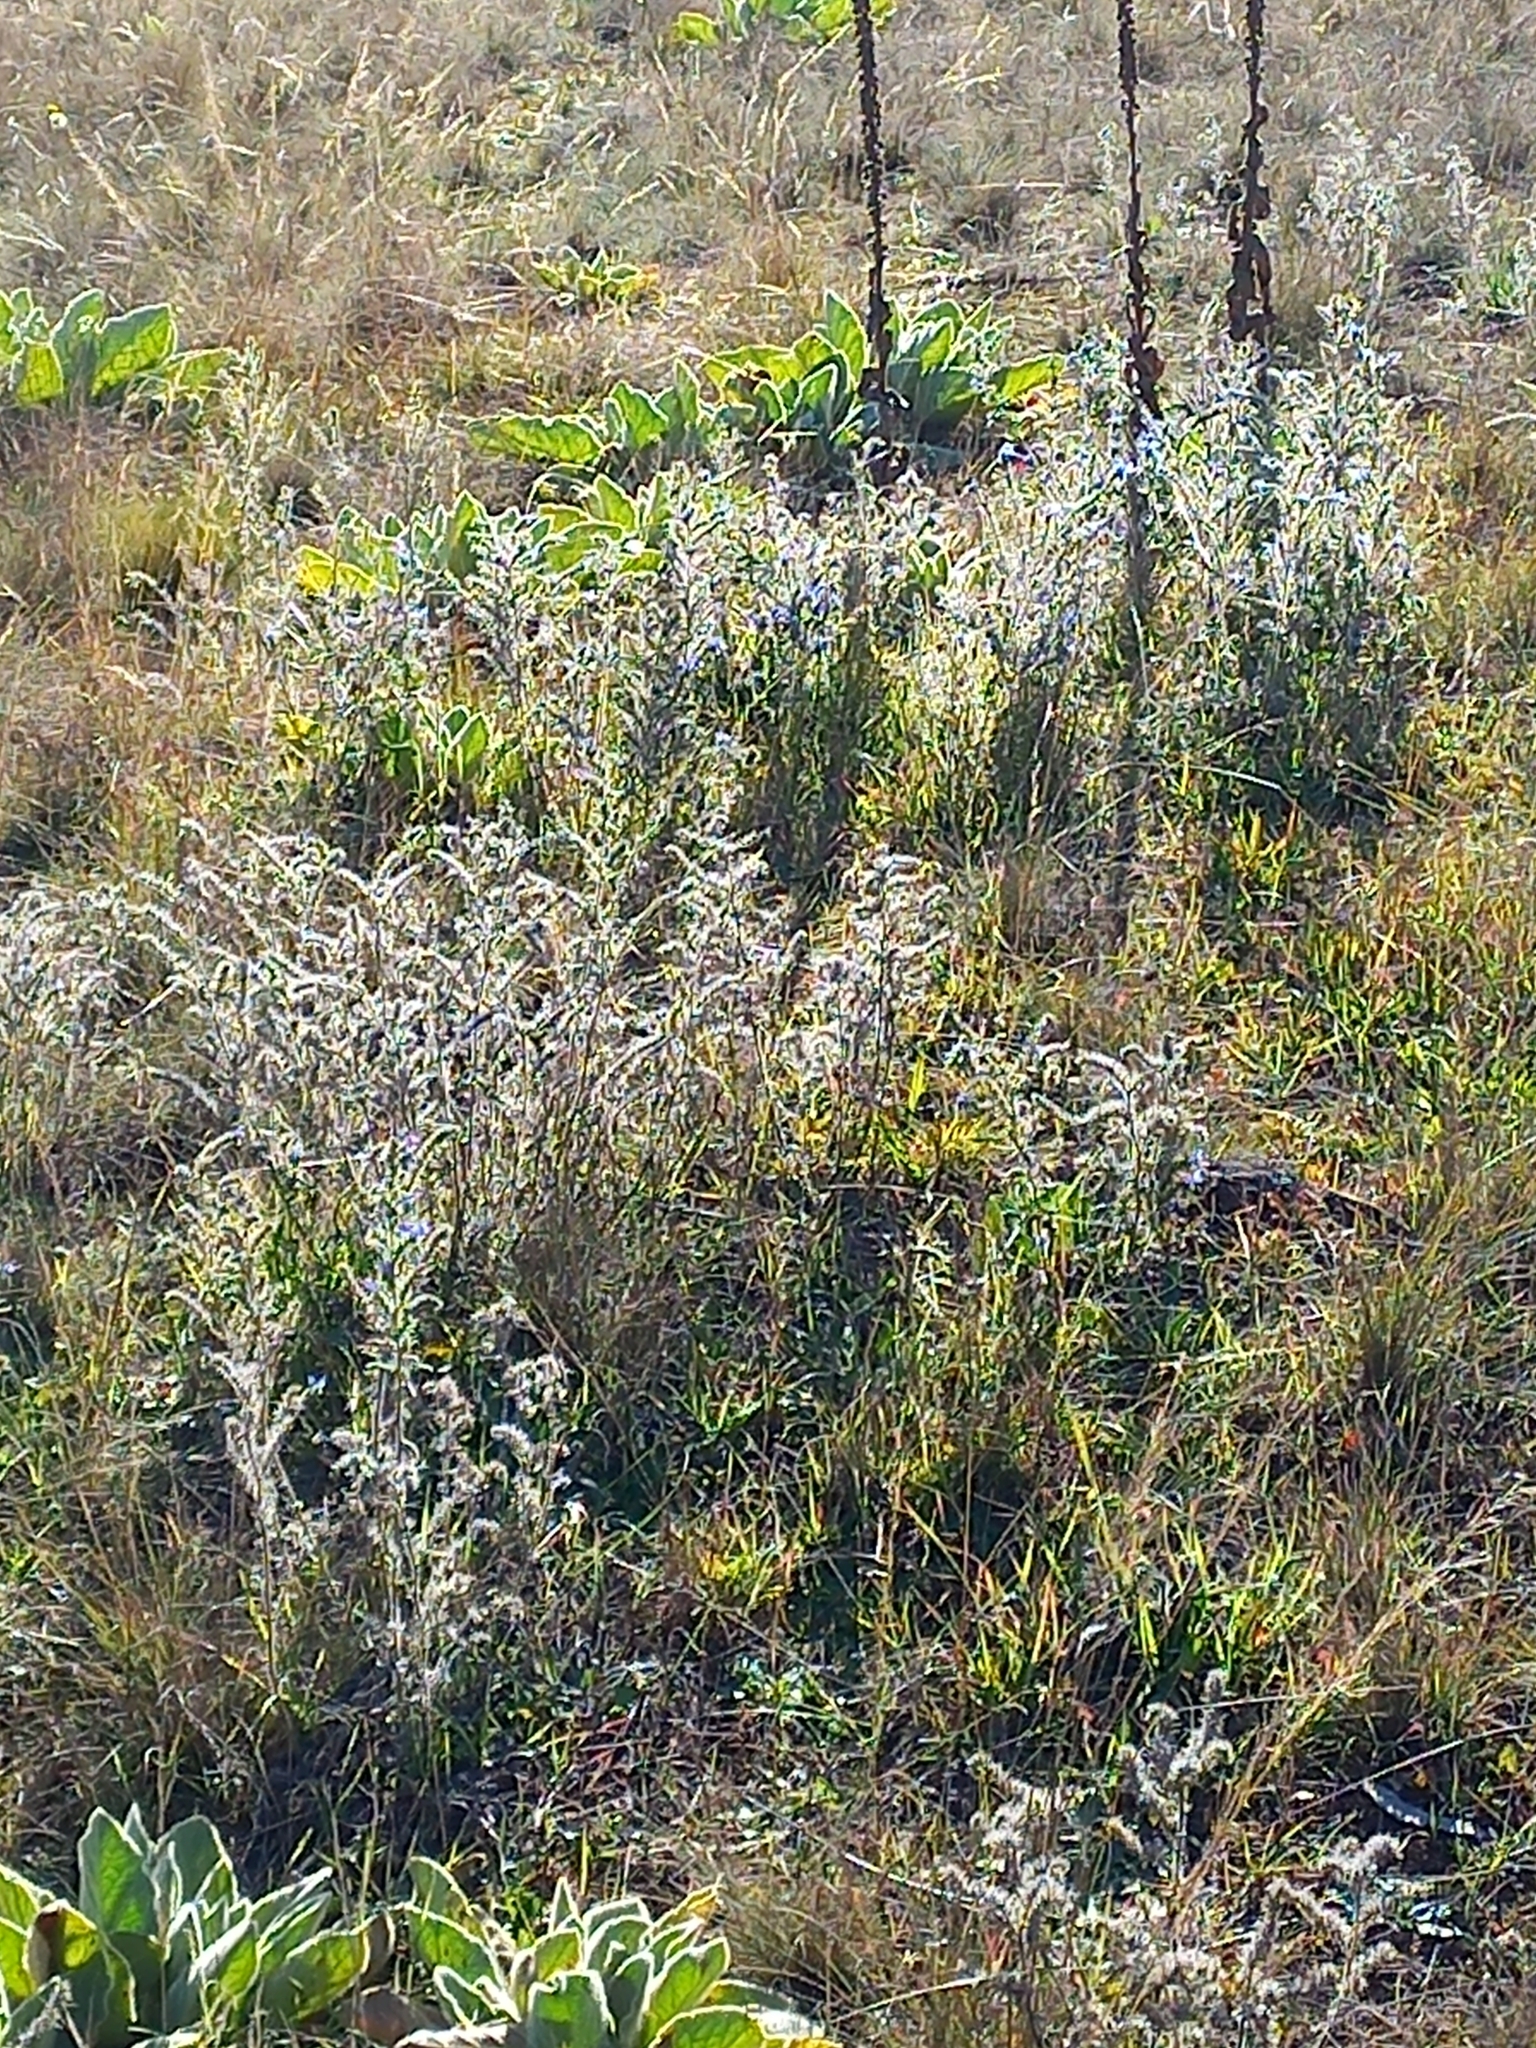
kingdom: Plantae
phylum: Tracheophyta
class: Magnoliopsida
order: Boraginales
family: Boraginaceae
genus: Echium
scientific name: Echium vulgare
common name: Common viper's bugloss
